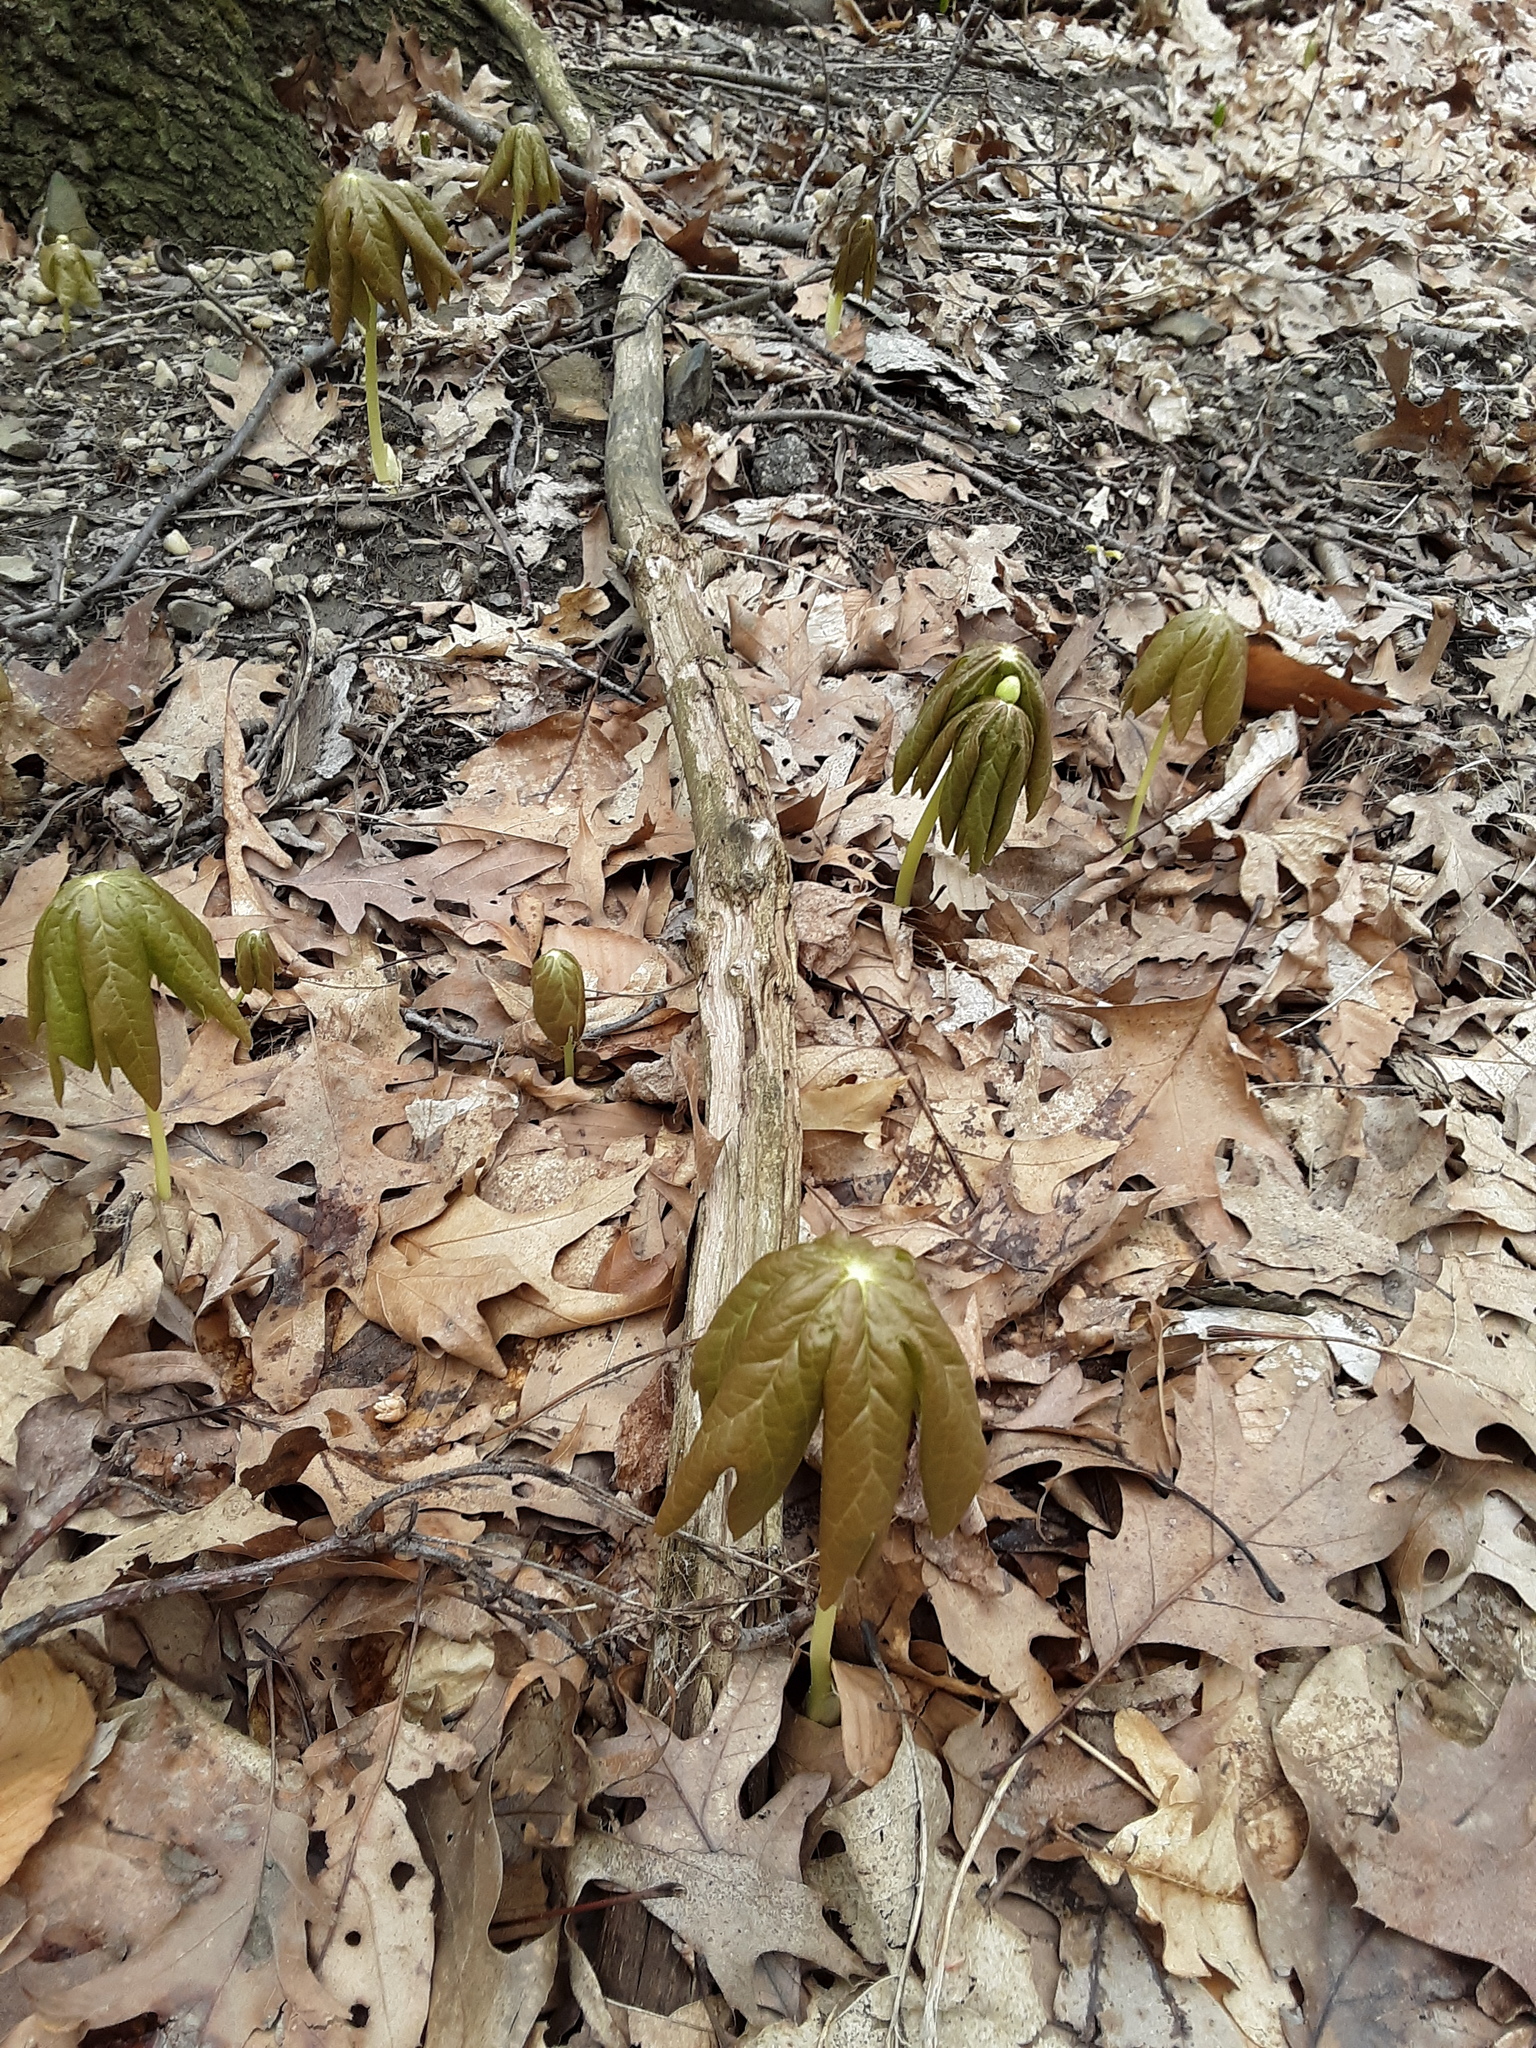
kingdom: Plantae
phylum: Tracheophyta
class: Magnoliopsida
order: Ranunculales
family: Berberidaceae
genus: Podophyllum
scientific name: Podophyllum peltatum
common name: Wild mandrake
